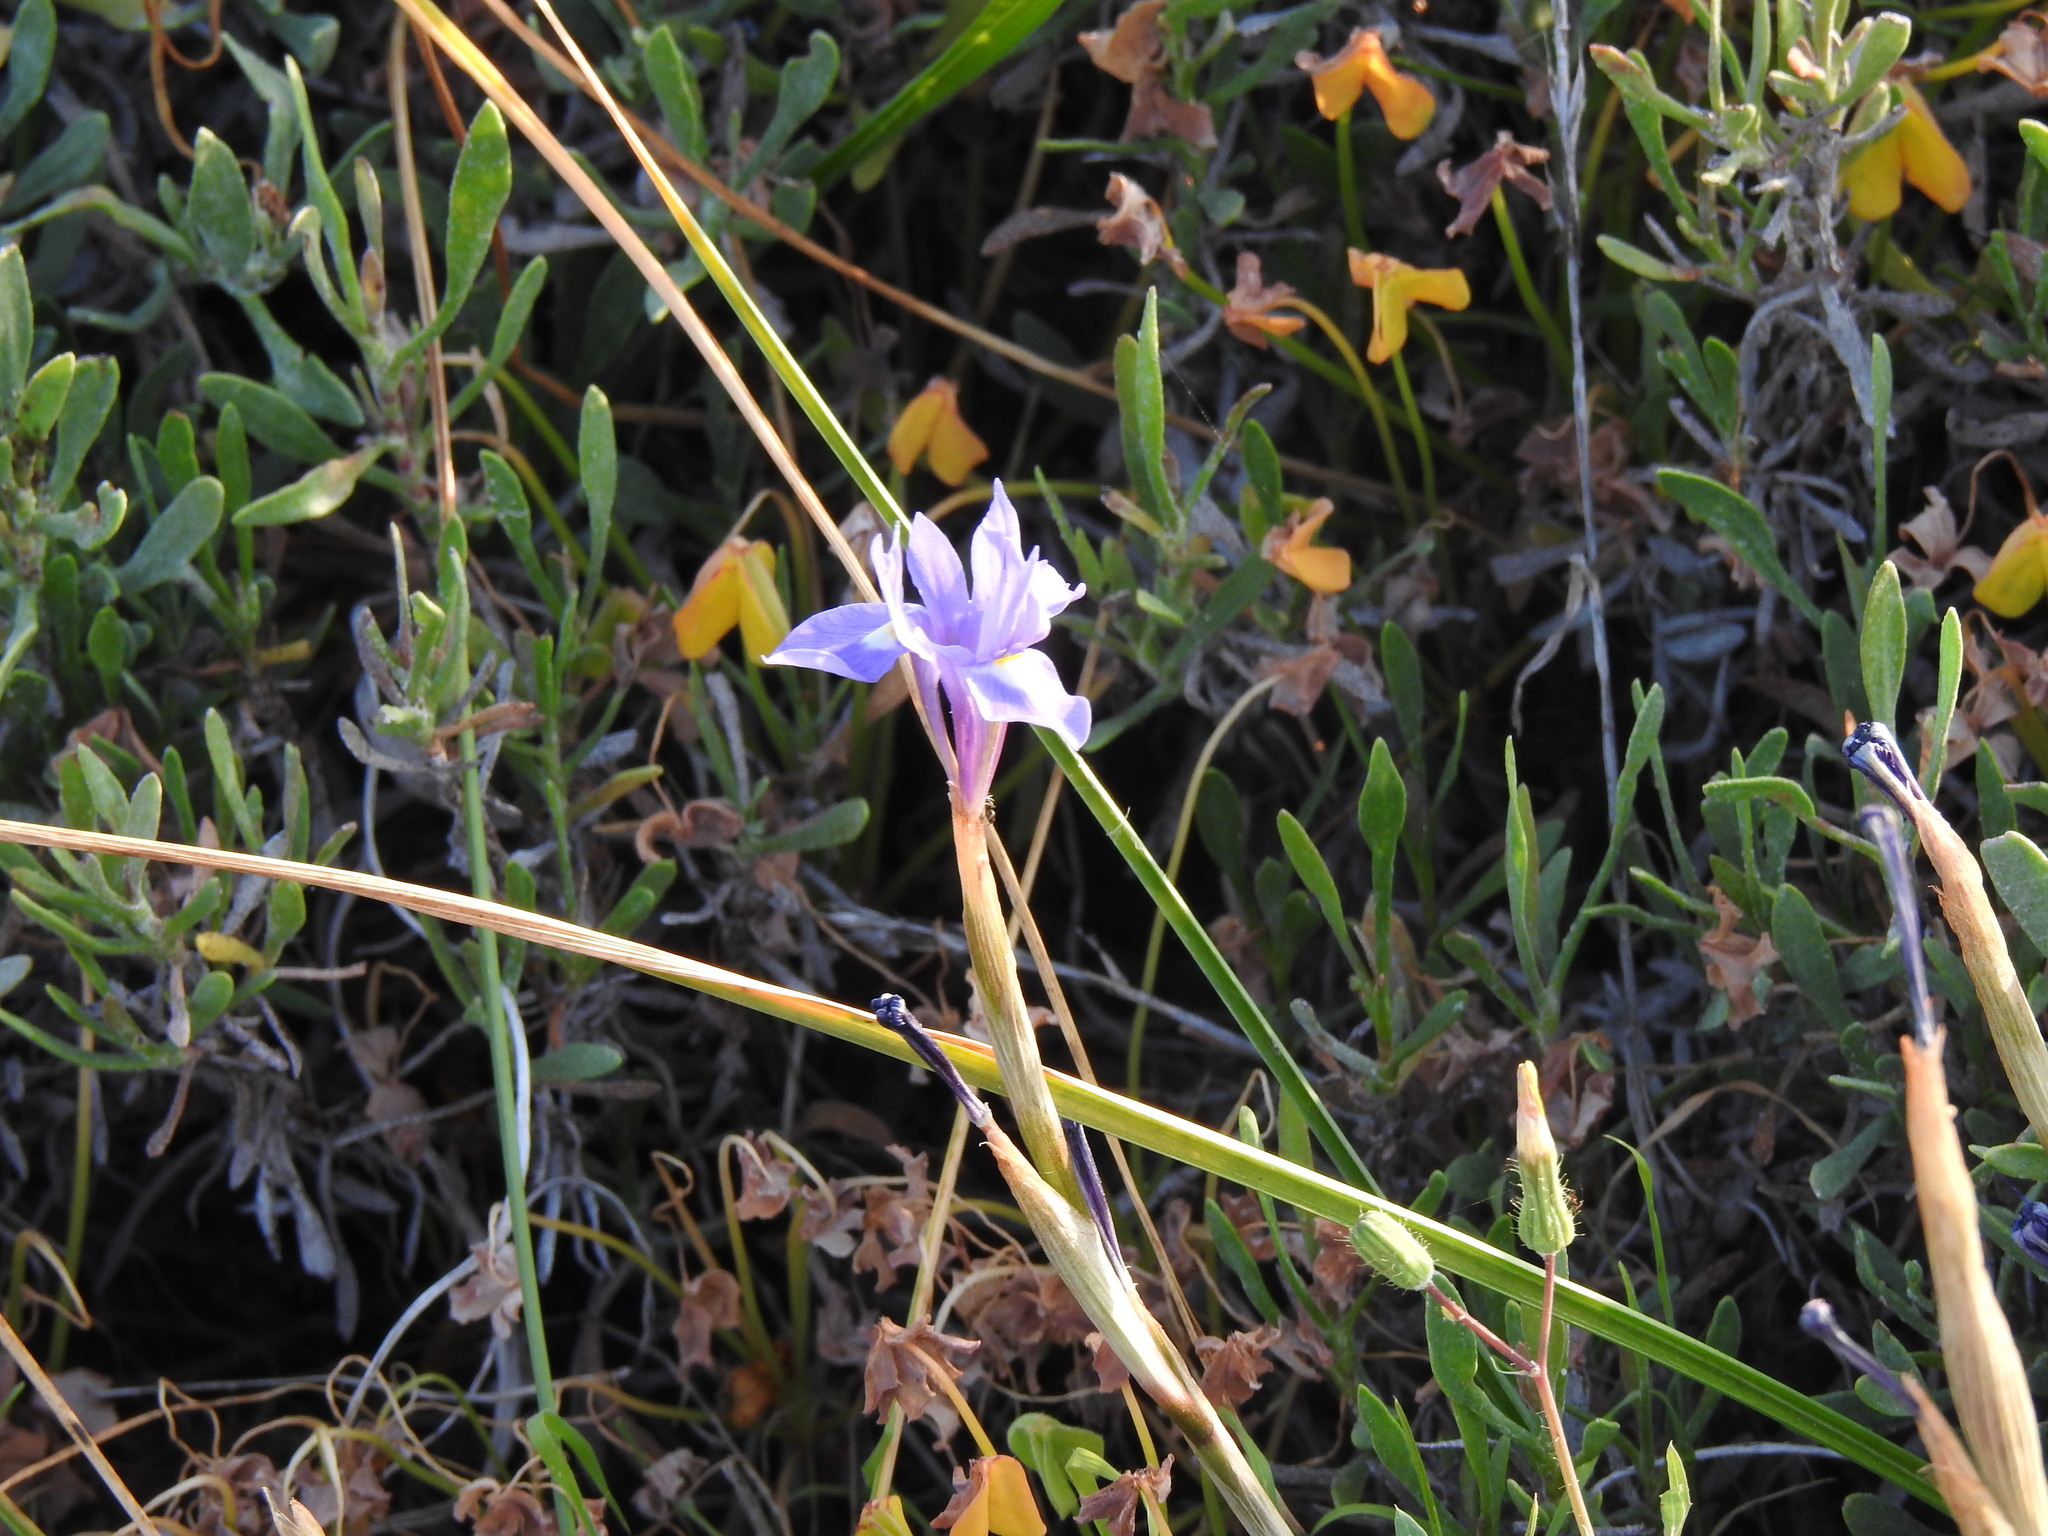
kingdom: Plantae
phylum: Tracheophyta
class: Liliopsida
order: Asparagales
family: Iridaceae
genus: Moraea
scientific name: Moraea sisyrinchium
